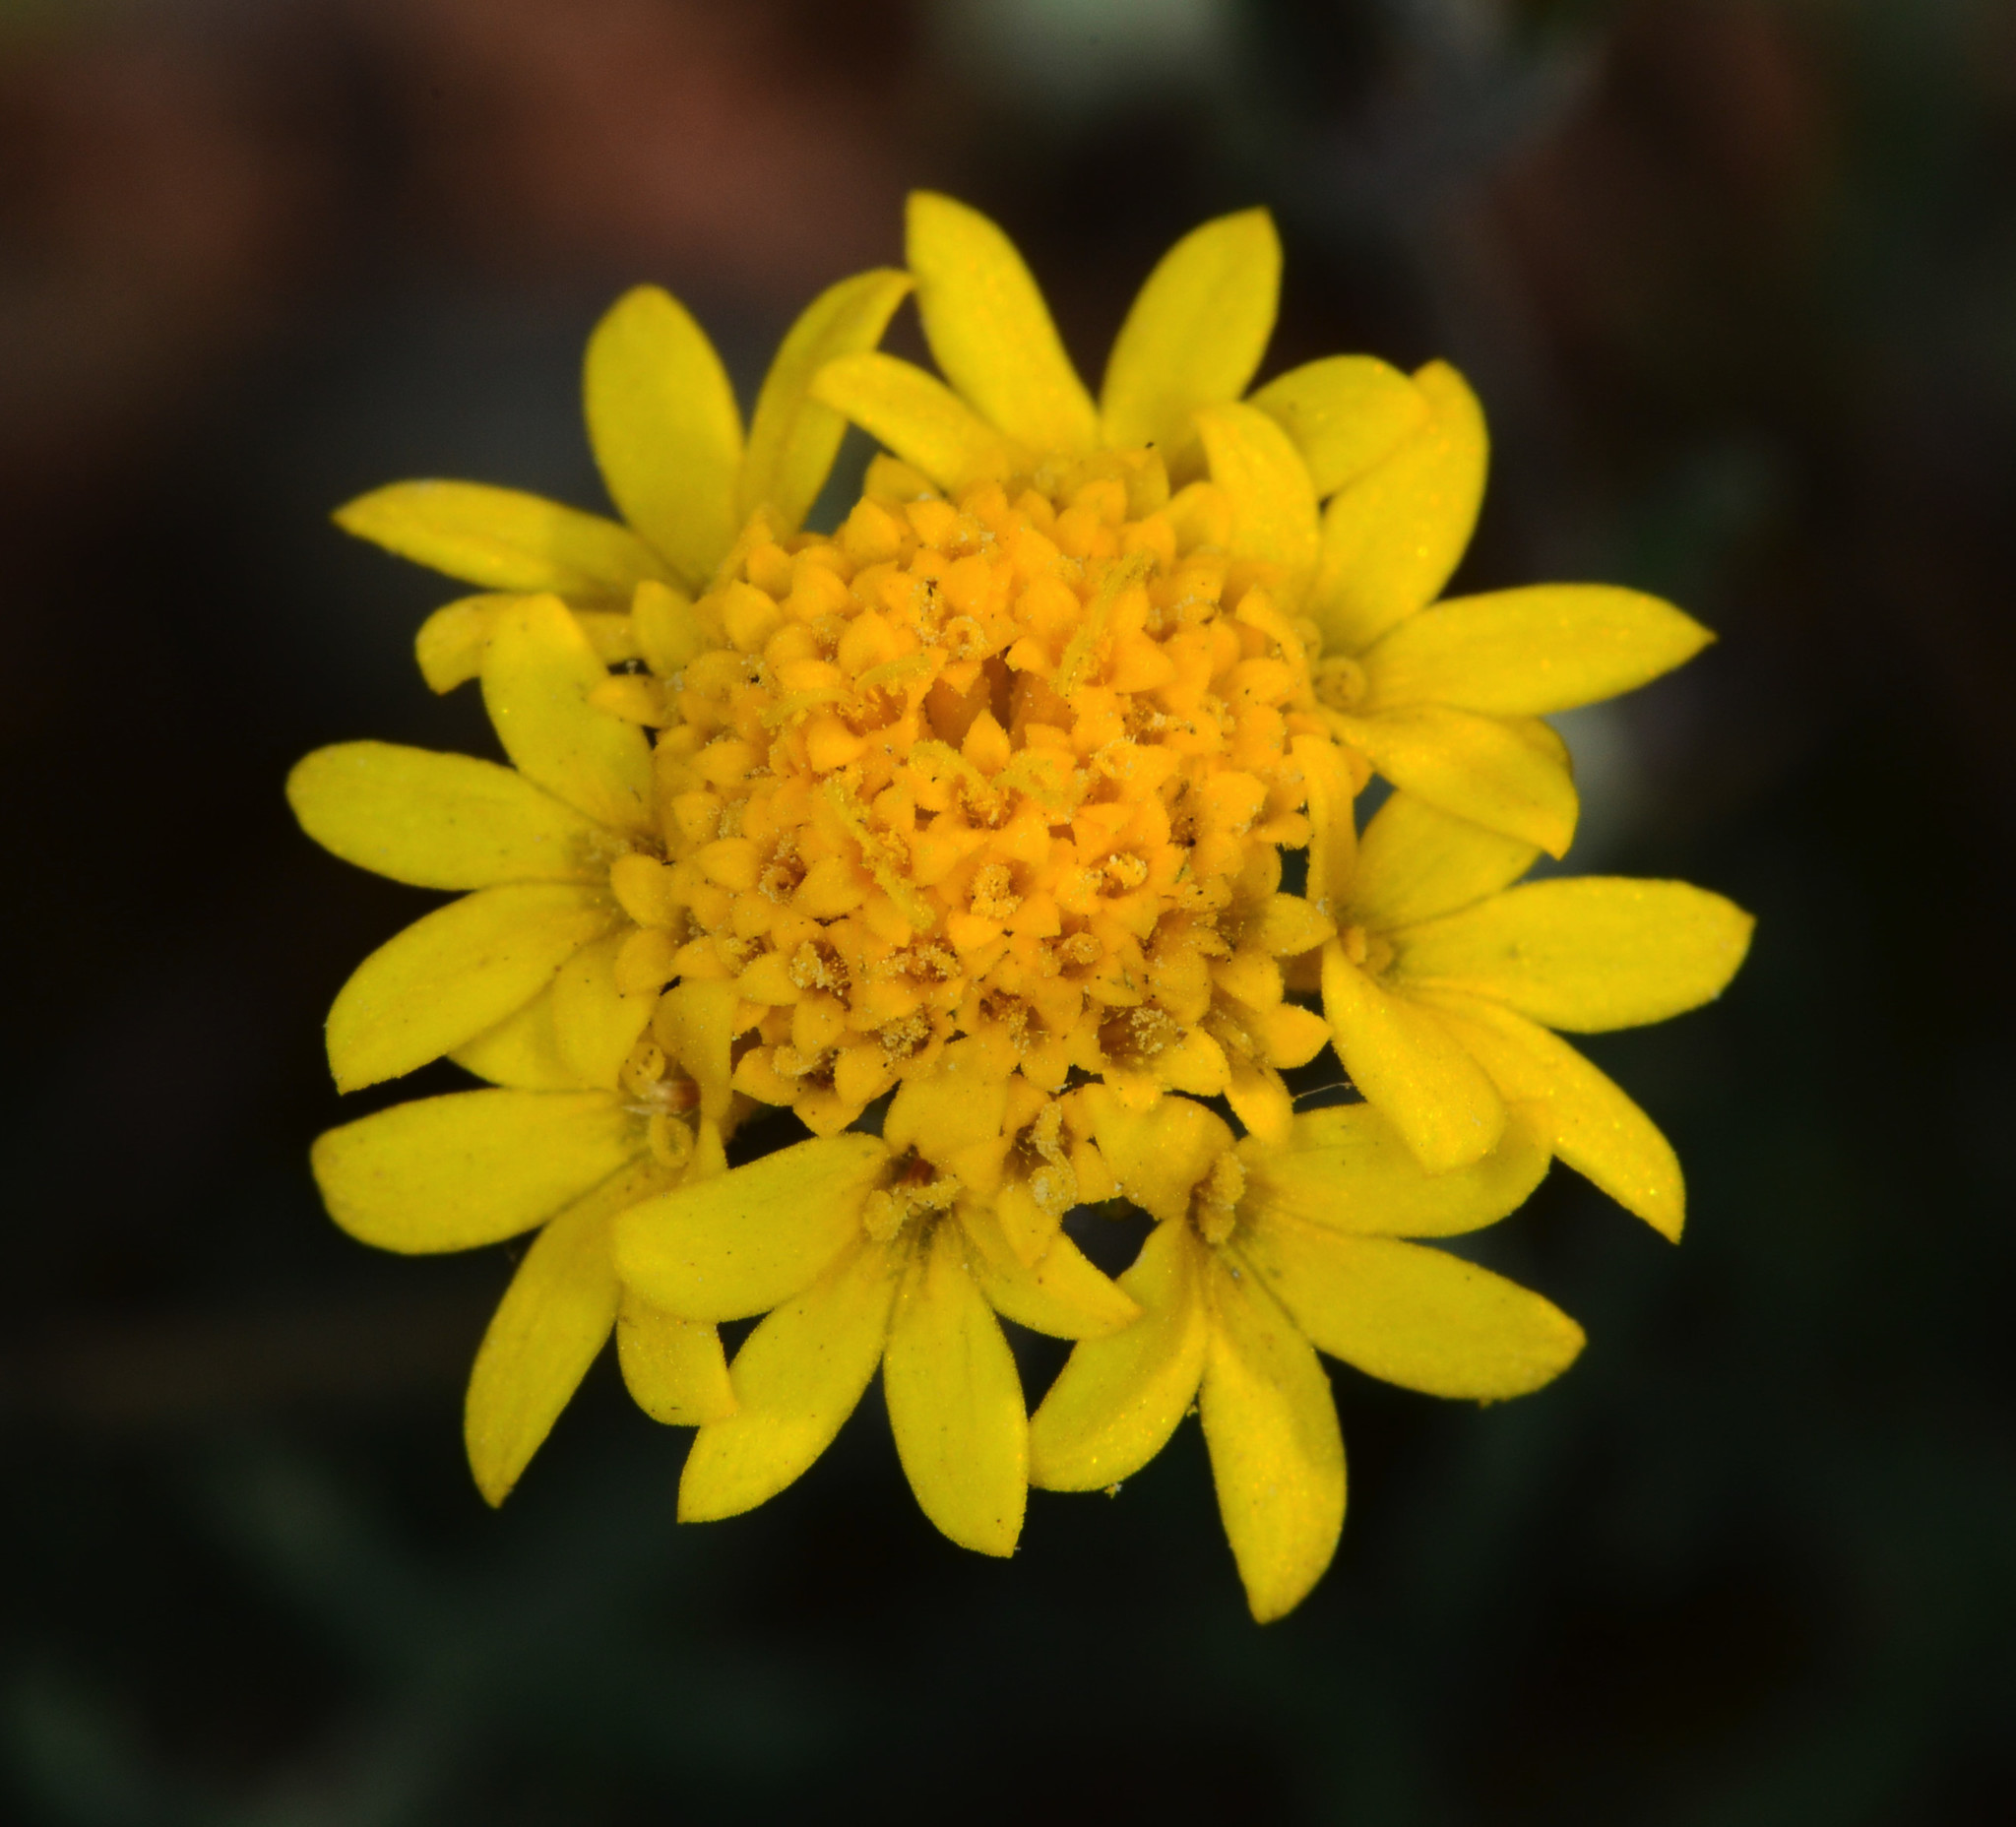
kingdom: Plantae
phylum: Tracheophyta
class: Magnoliopsida
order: Asterales
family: Asteraceae
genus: Chaenactis
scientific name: Chaenactis glabriuscula
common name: Yellow pincushion
